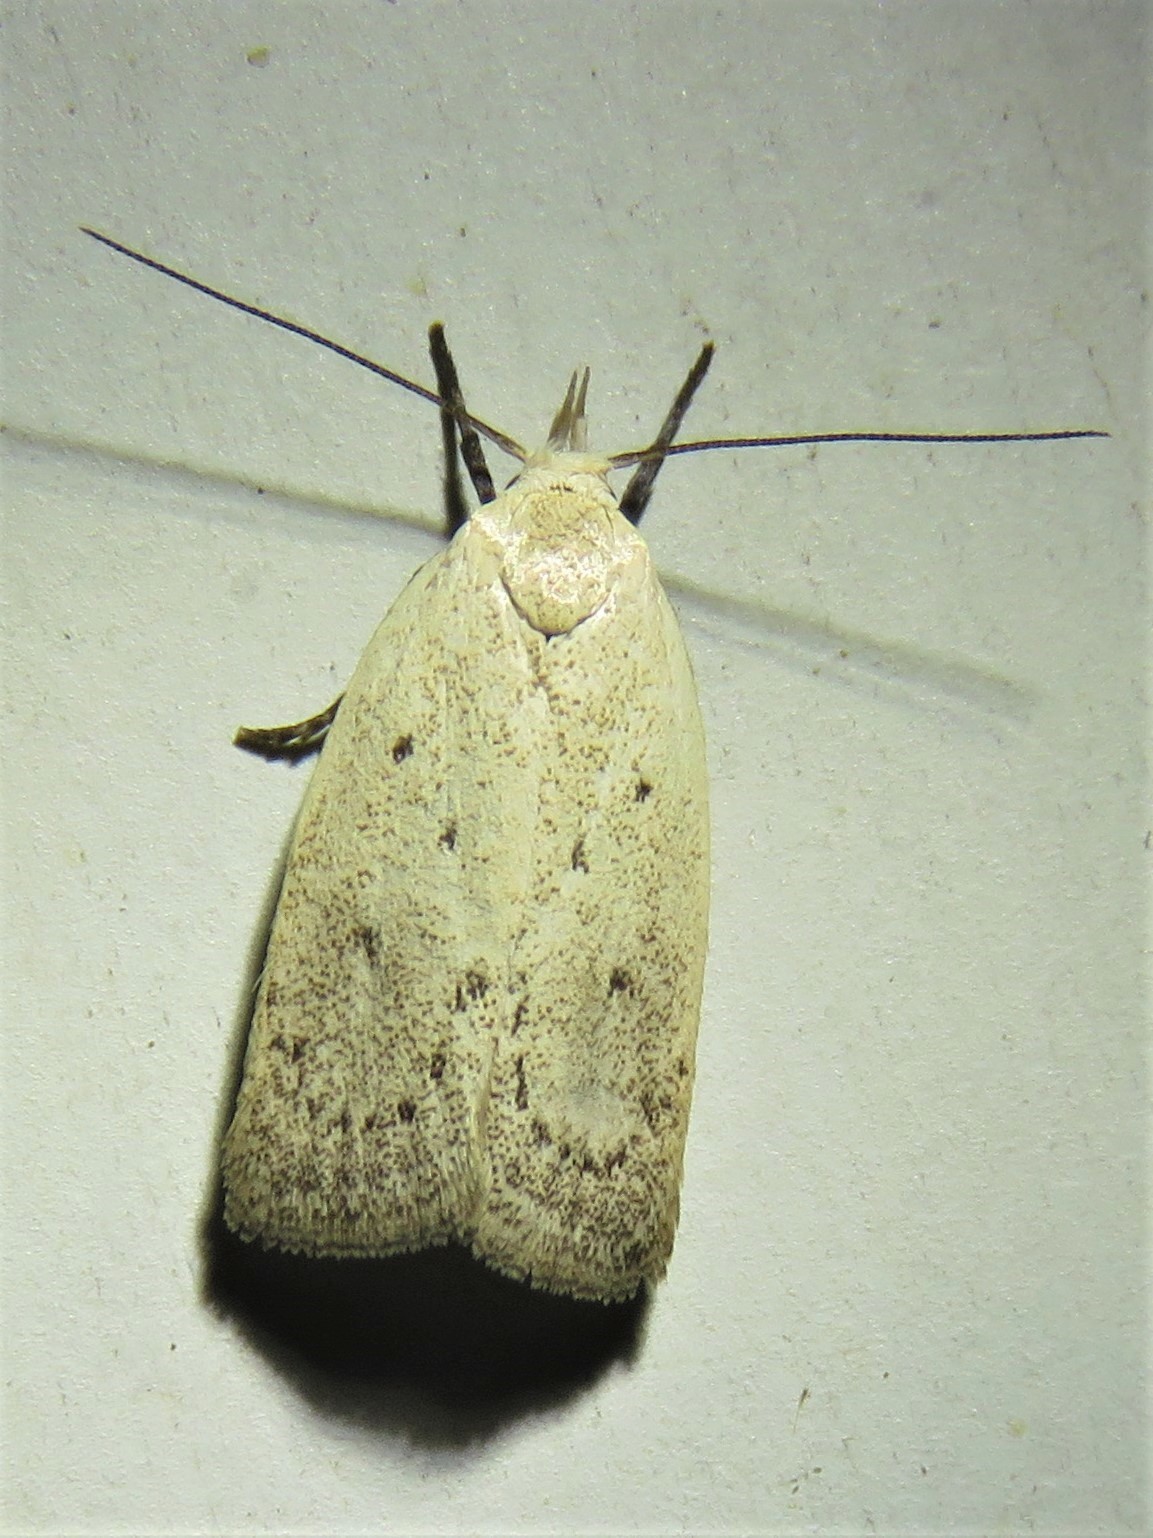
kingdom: Animalia
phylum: Arthropoda
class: Insecta
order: Lepidoptera
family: Oecophoridae
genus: Inga
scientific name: Inga cretacea
